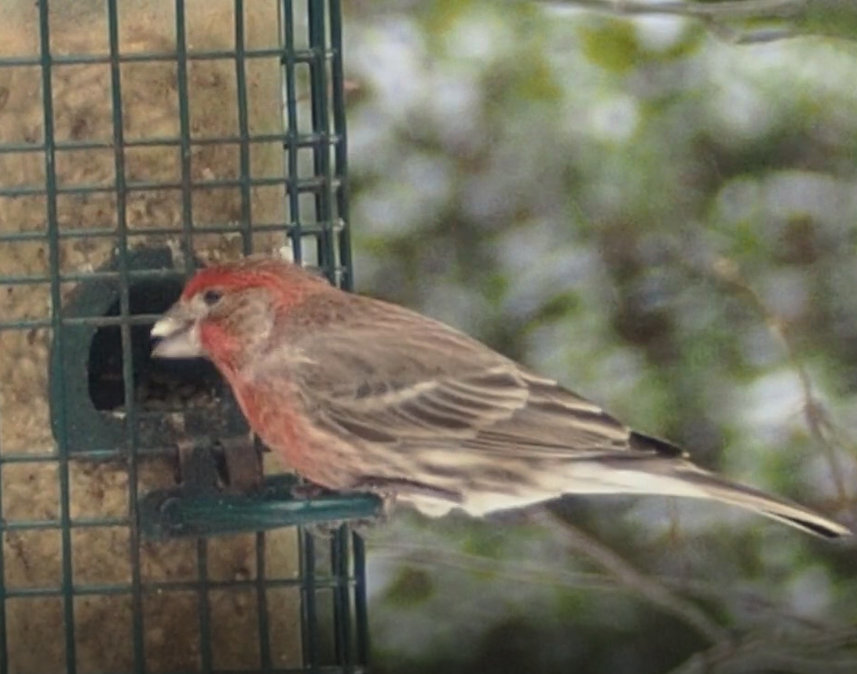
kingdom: Animalia
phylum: Chordata
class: Aves
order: Passeriformes
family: Fringillidae
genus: Haemorhous
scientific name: Haemorhous mexicanus
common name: House finch
